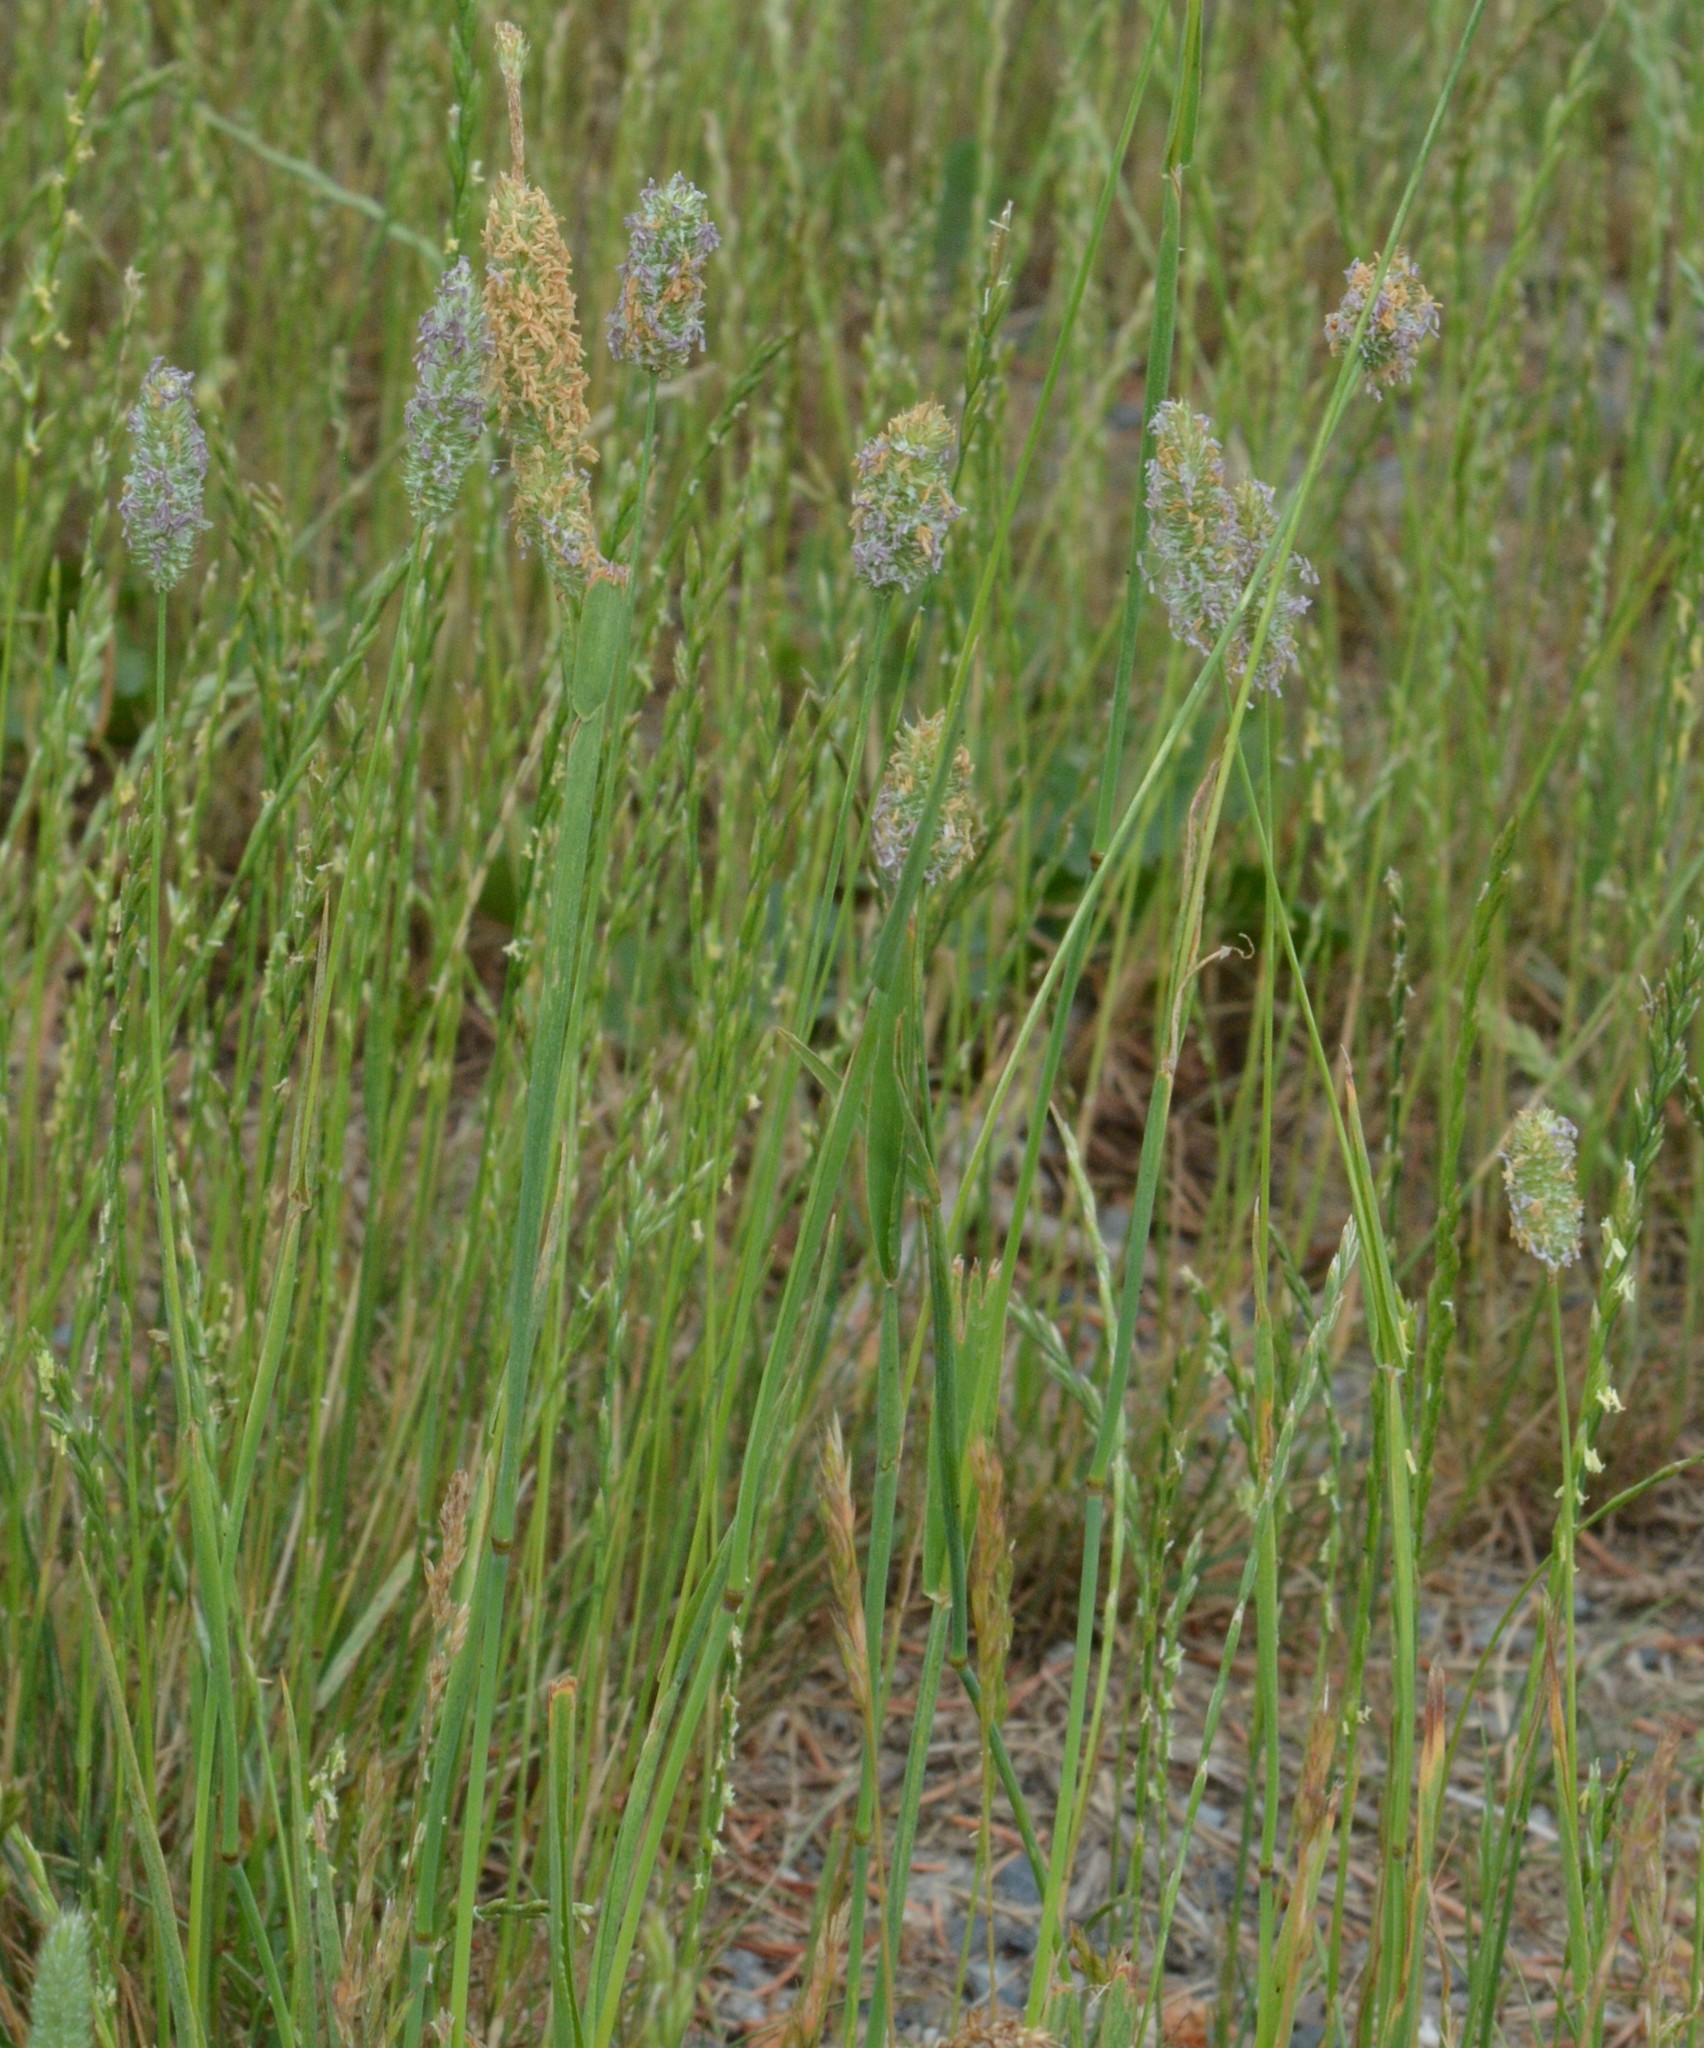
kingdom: Plantae
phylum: Tracheophyta
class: Liliopsida
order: Poales
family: Poaceae
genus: Phleum
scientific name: Phleum pratense
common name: Timothy grass
